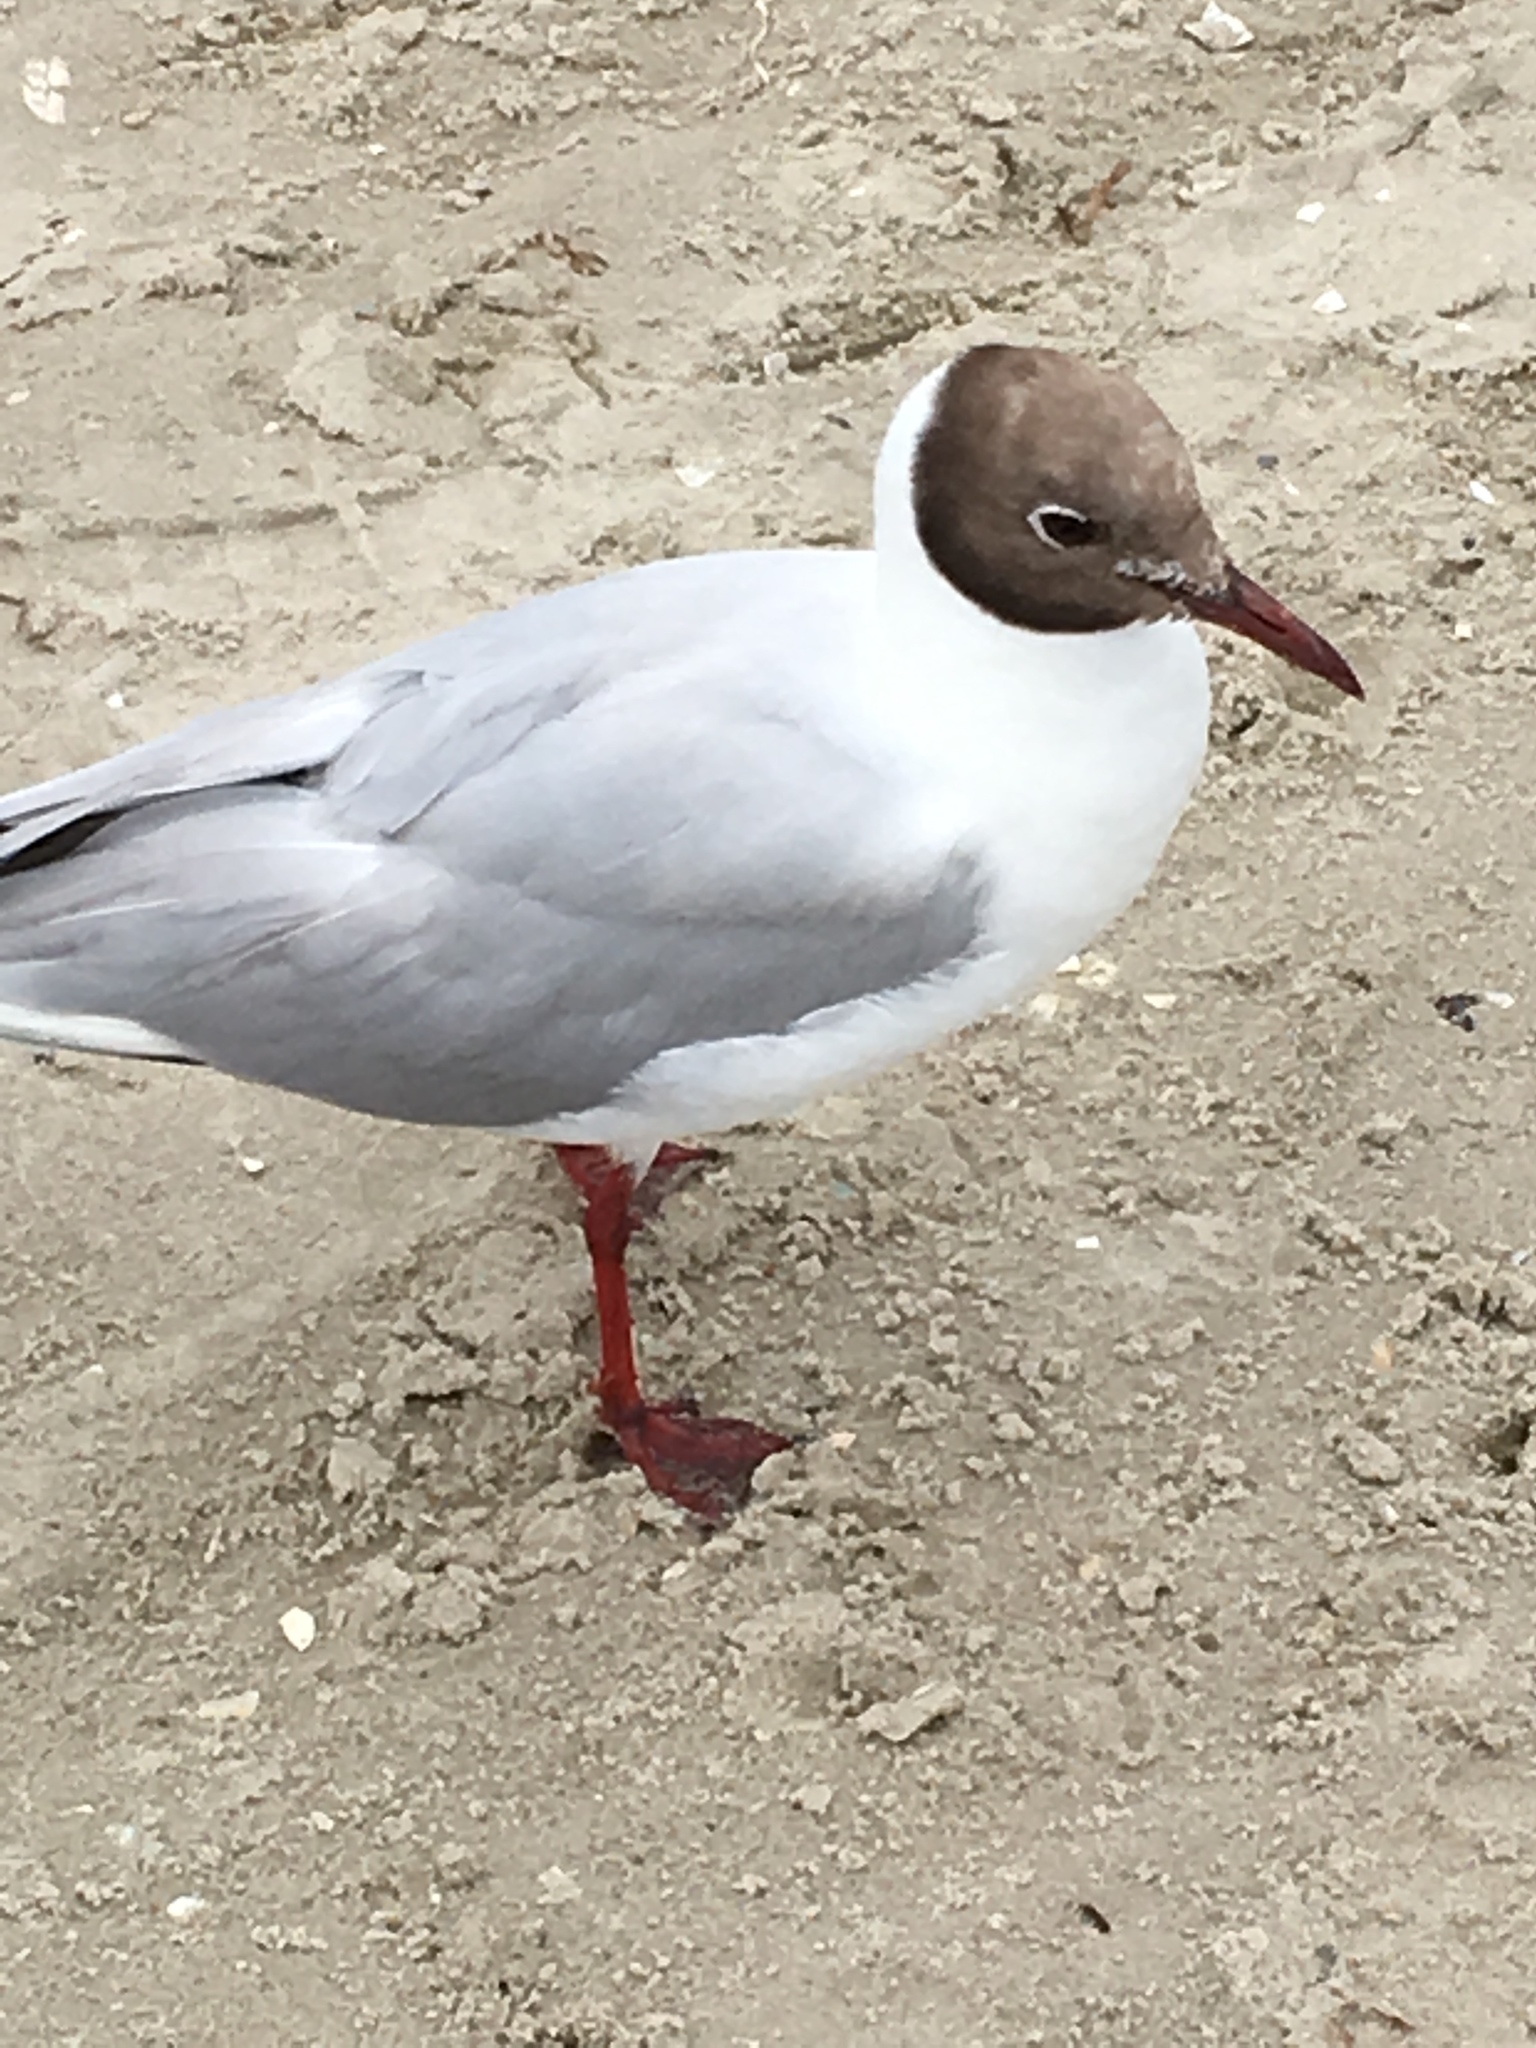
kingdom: Animalia
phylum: Chordata
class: Aves
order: Charadriiformes
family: Laridae
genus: Chroicocephalus
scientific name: Chroicocephalus ridibundus
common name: Black-headed gull
